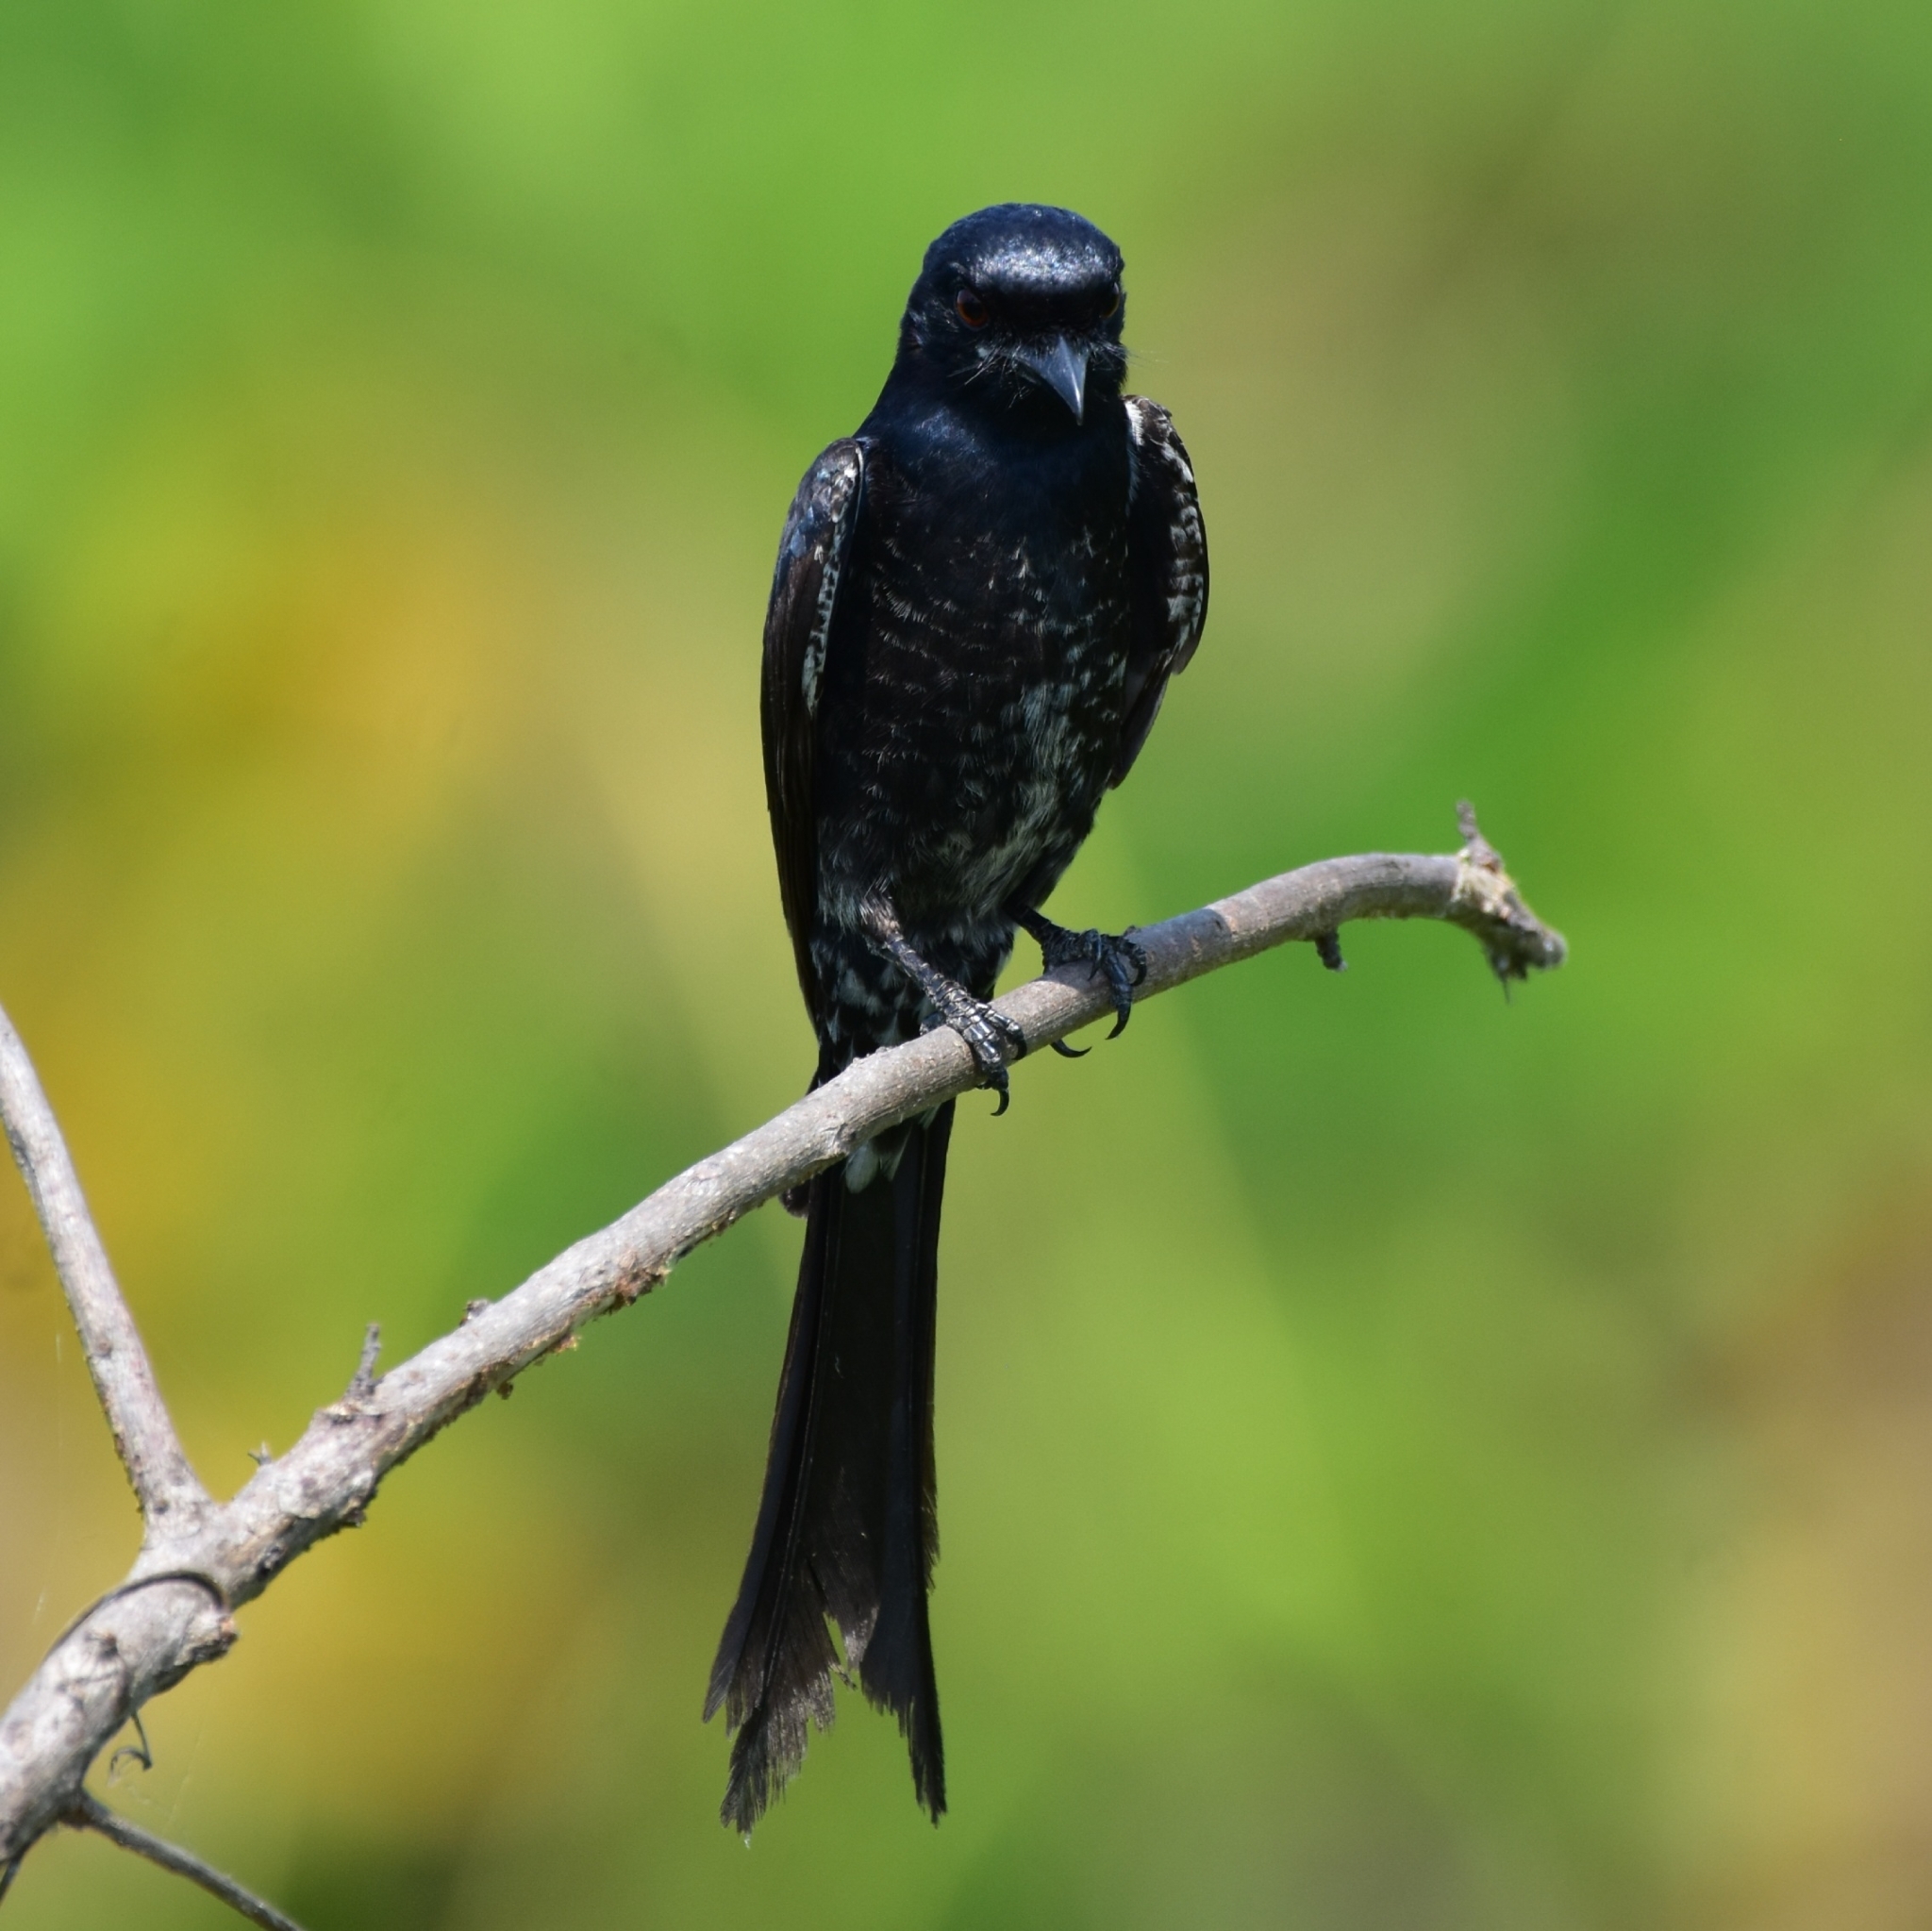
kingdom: Animalia
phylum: Chordata
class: Aves
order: Passeriformes
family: Dicruridae
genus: Dicrurus
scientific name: Dicrurus macrocercus
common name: Black drongo
